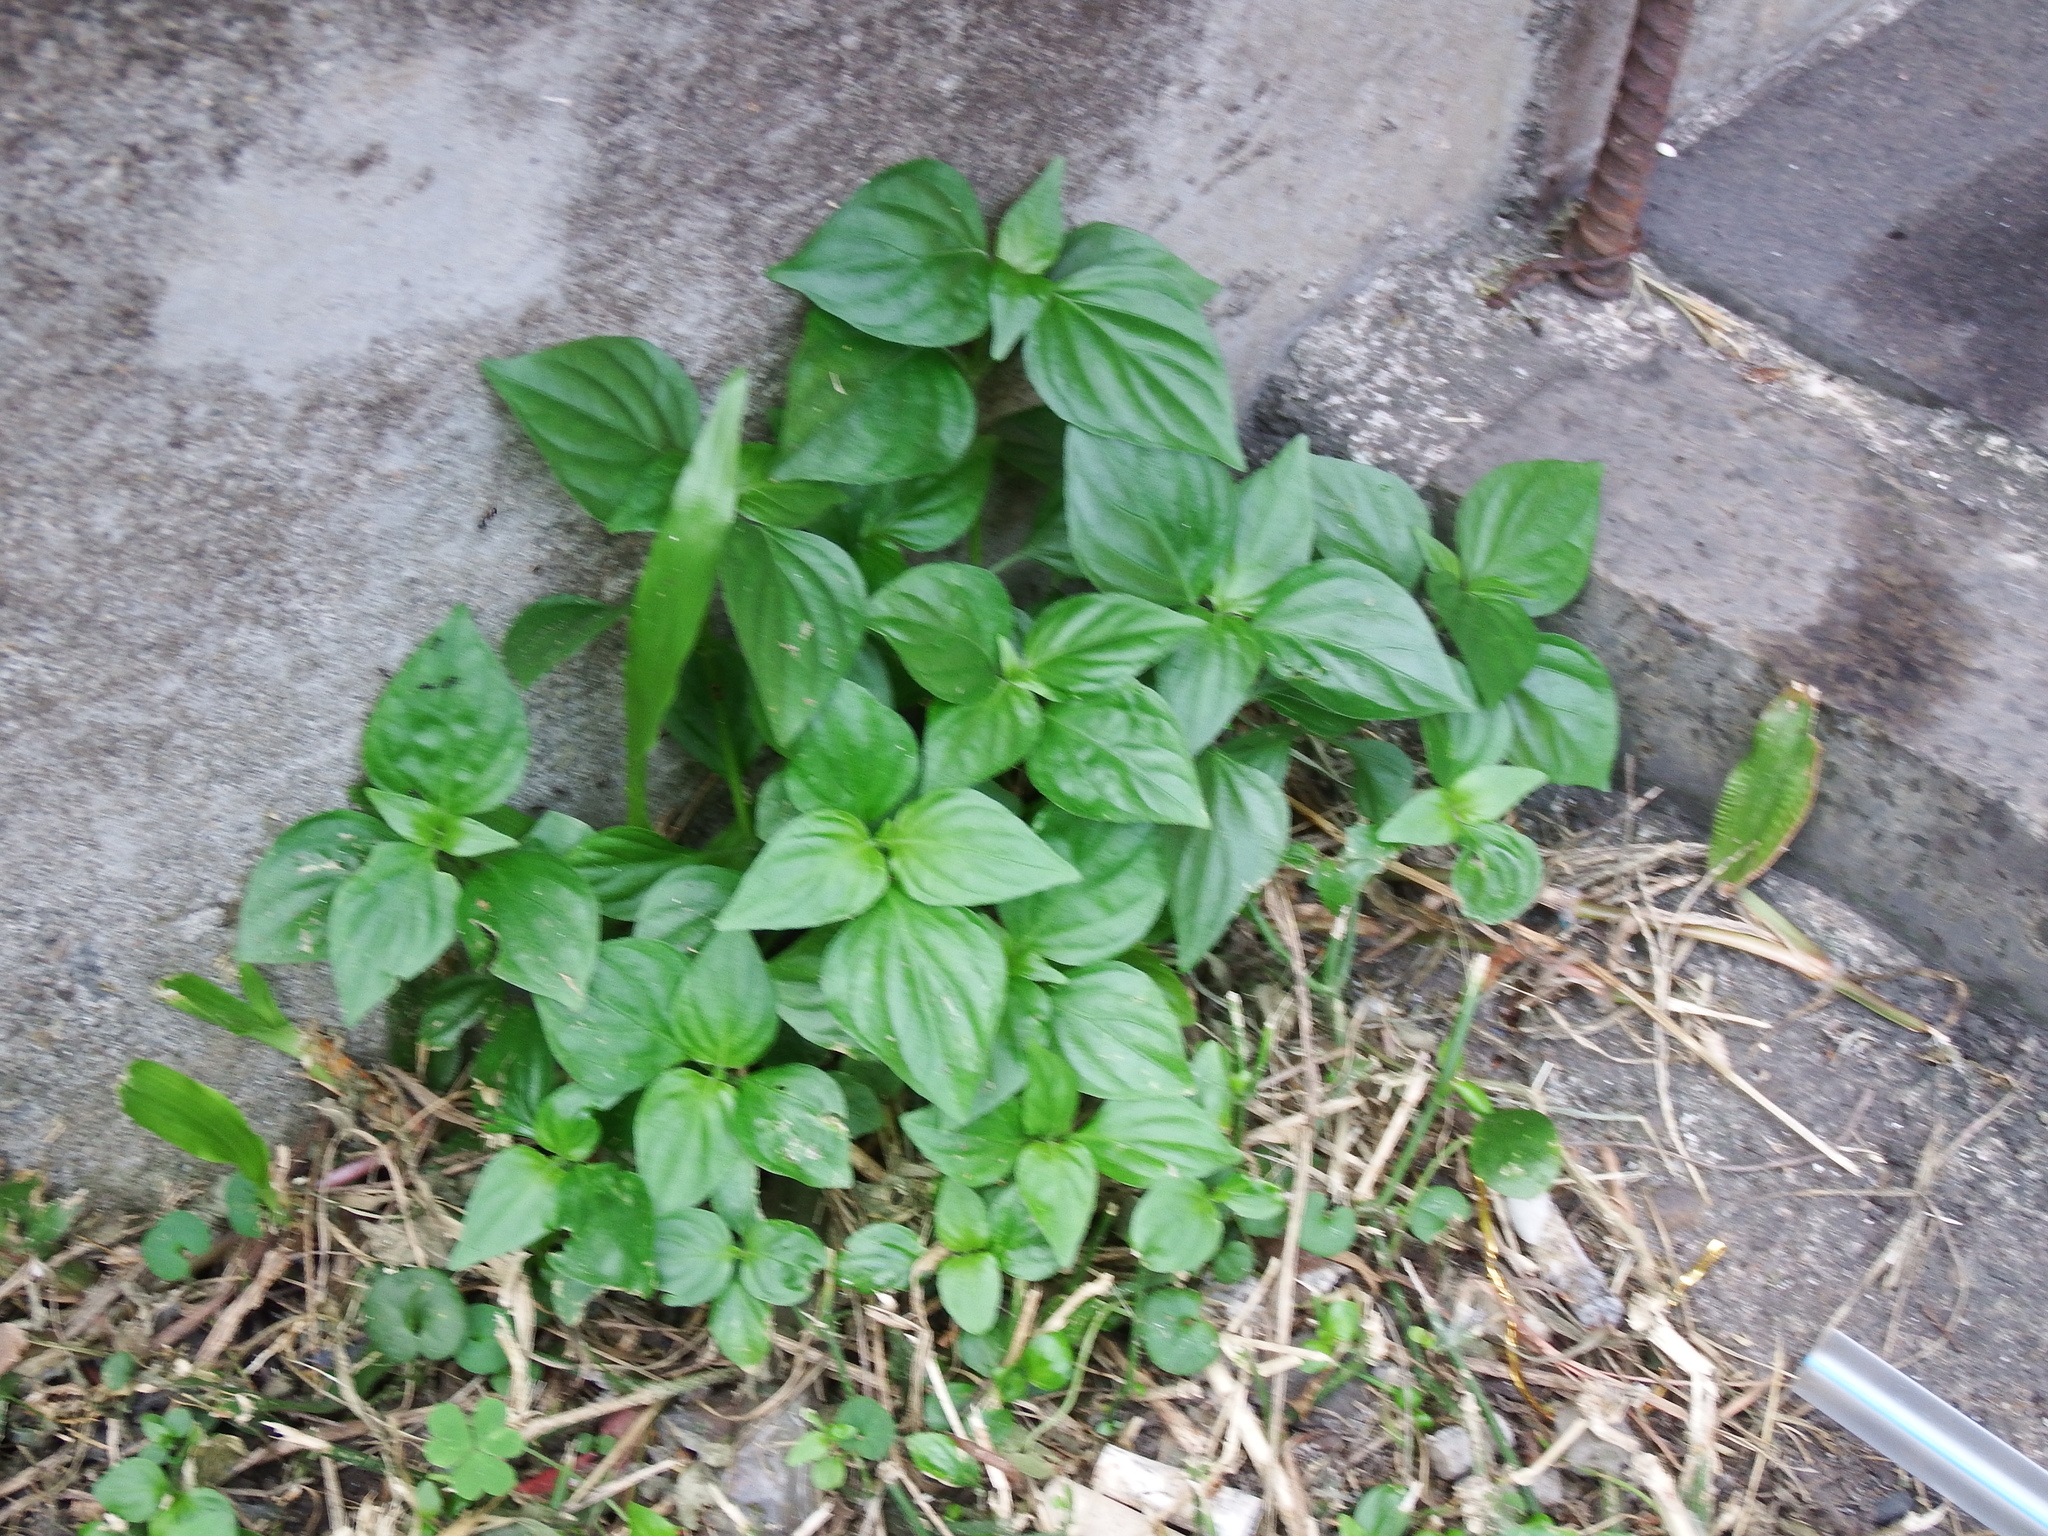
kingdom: Plantae
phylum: Tracheophyta
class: Magnoliopsida
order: Lamiales
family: Acanthaceae
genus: Dicliptera
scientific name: Dicliptera chinensis
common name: Chinese foldwing
